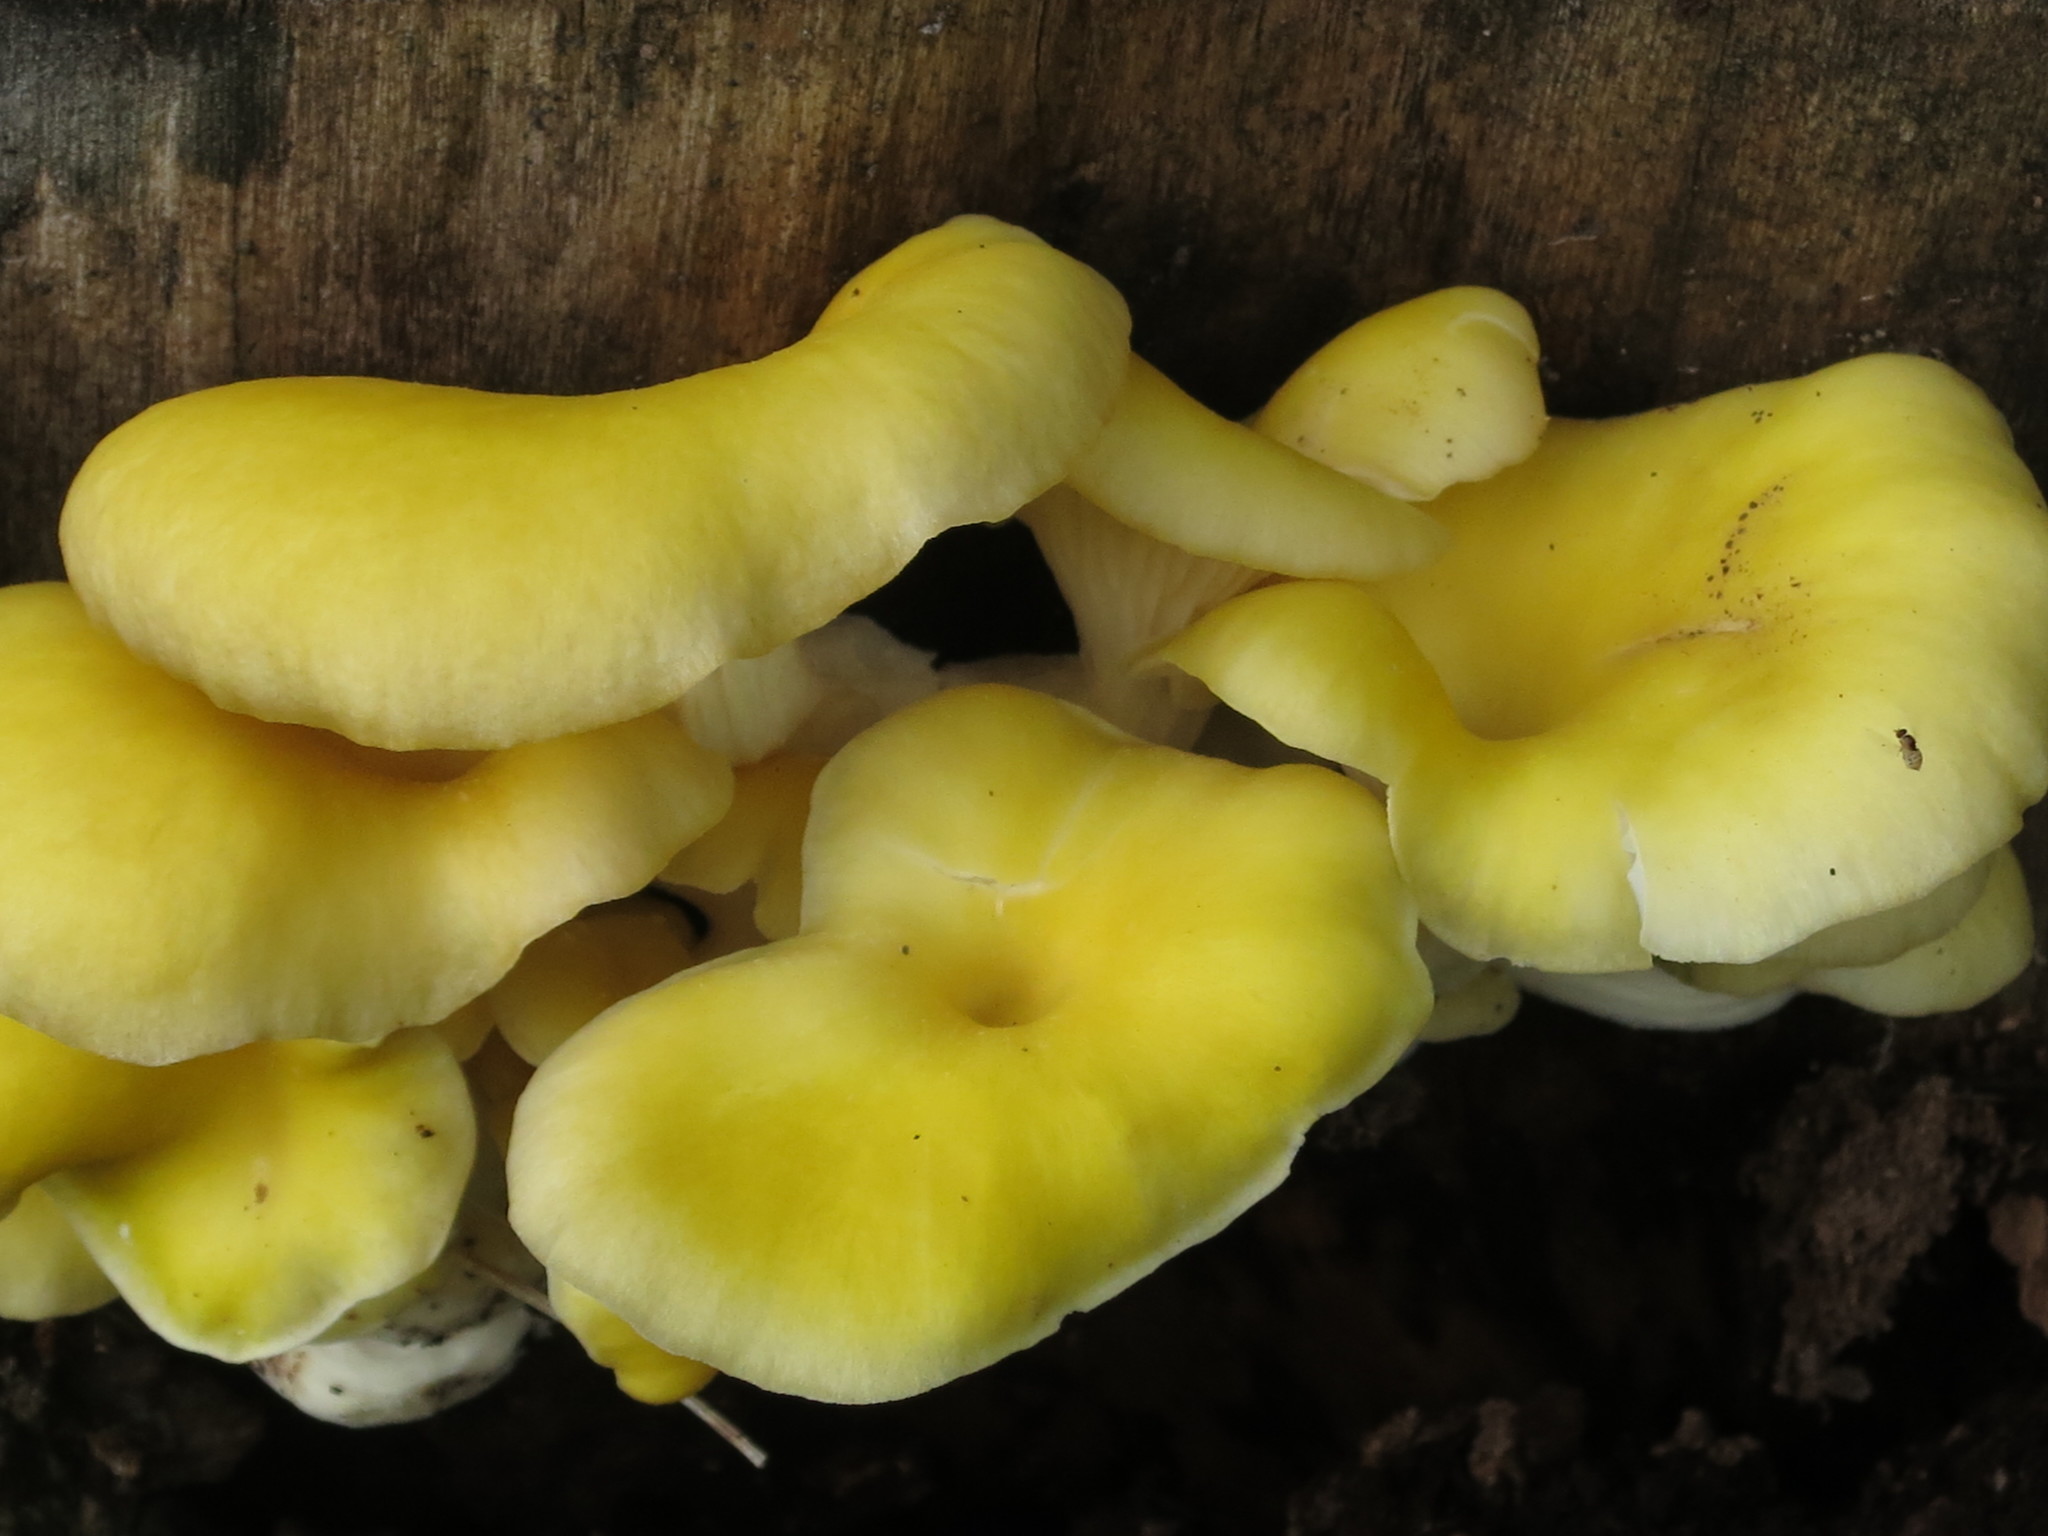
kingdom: Fungi
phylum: Basidiomycota
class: Agaricomycetes
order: Agaricales
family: Pleurotaceae
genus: Pleurotus
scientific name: Pleurotus citrinopileatus
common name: Golden oyster mushroom
